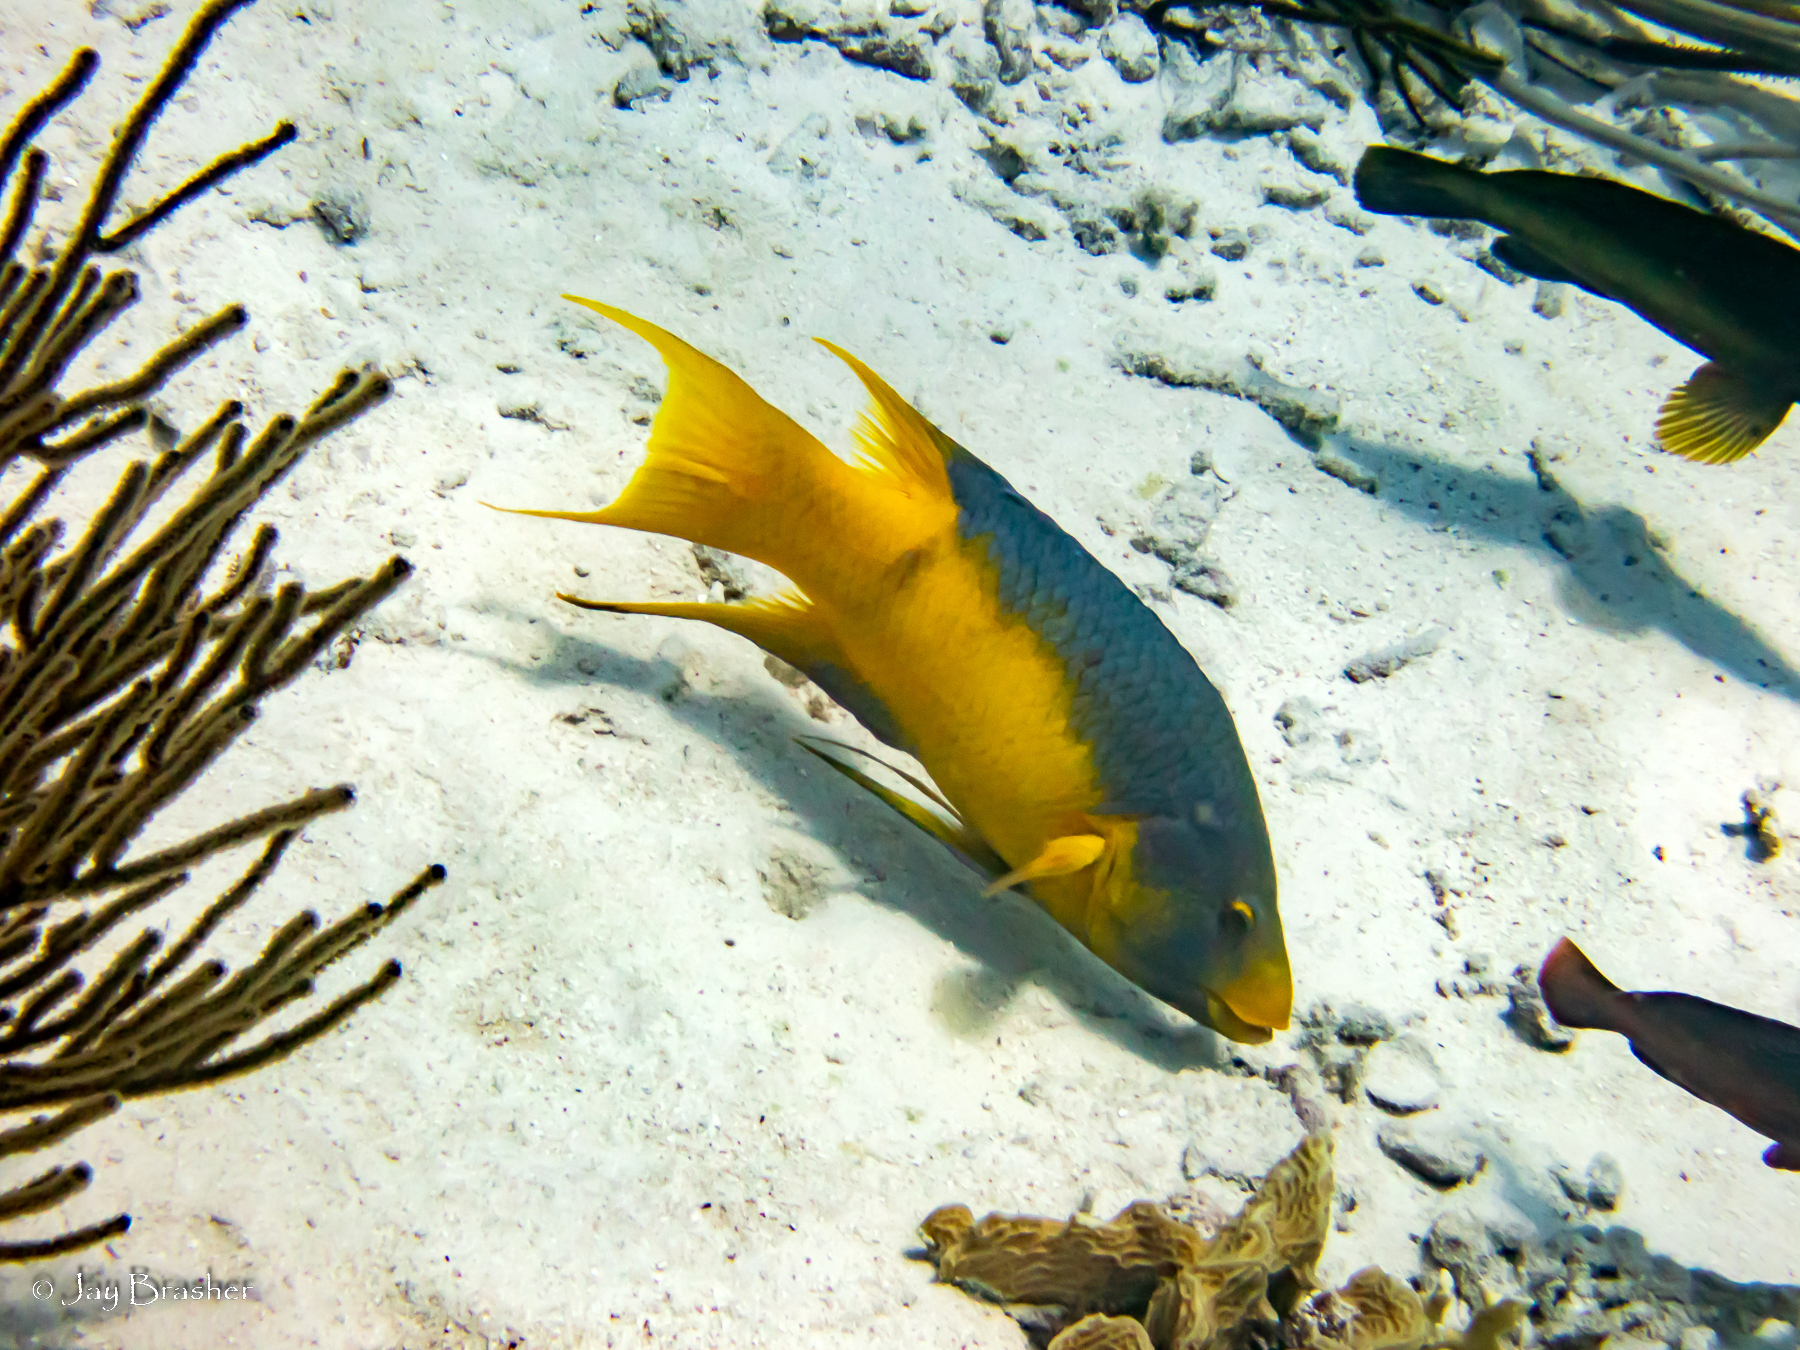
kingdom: Animalia
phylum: Chordata
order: Perciformes
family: Labridae
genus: Bodianus
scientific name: Bodianus rufus
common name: Spanish hogfish
